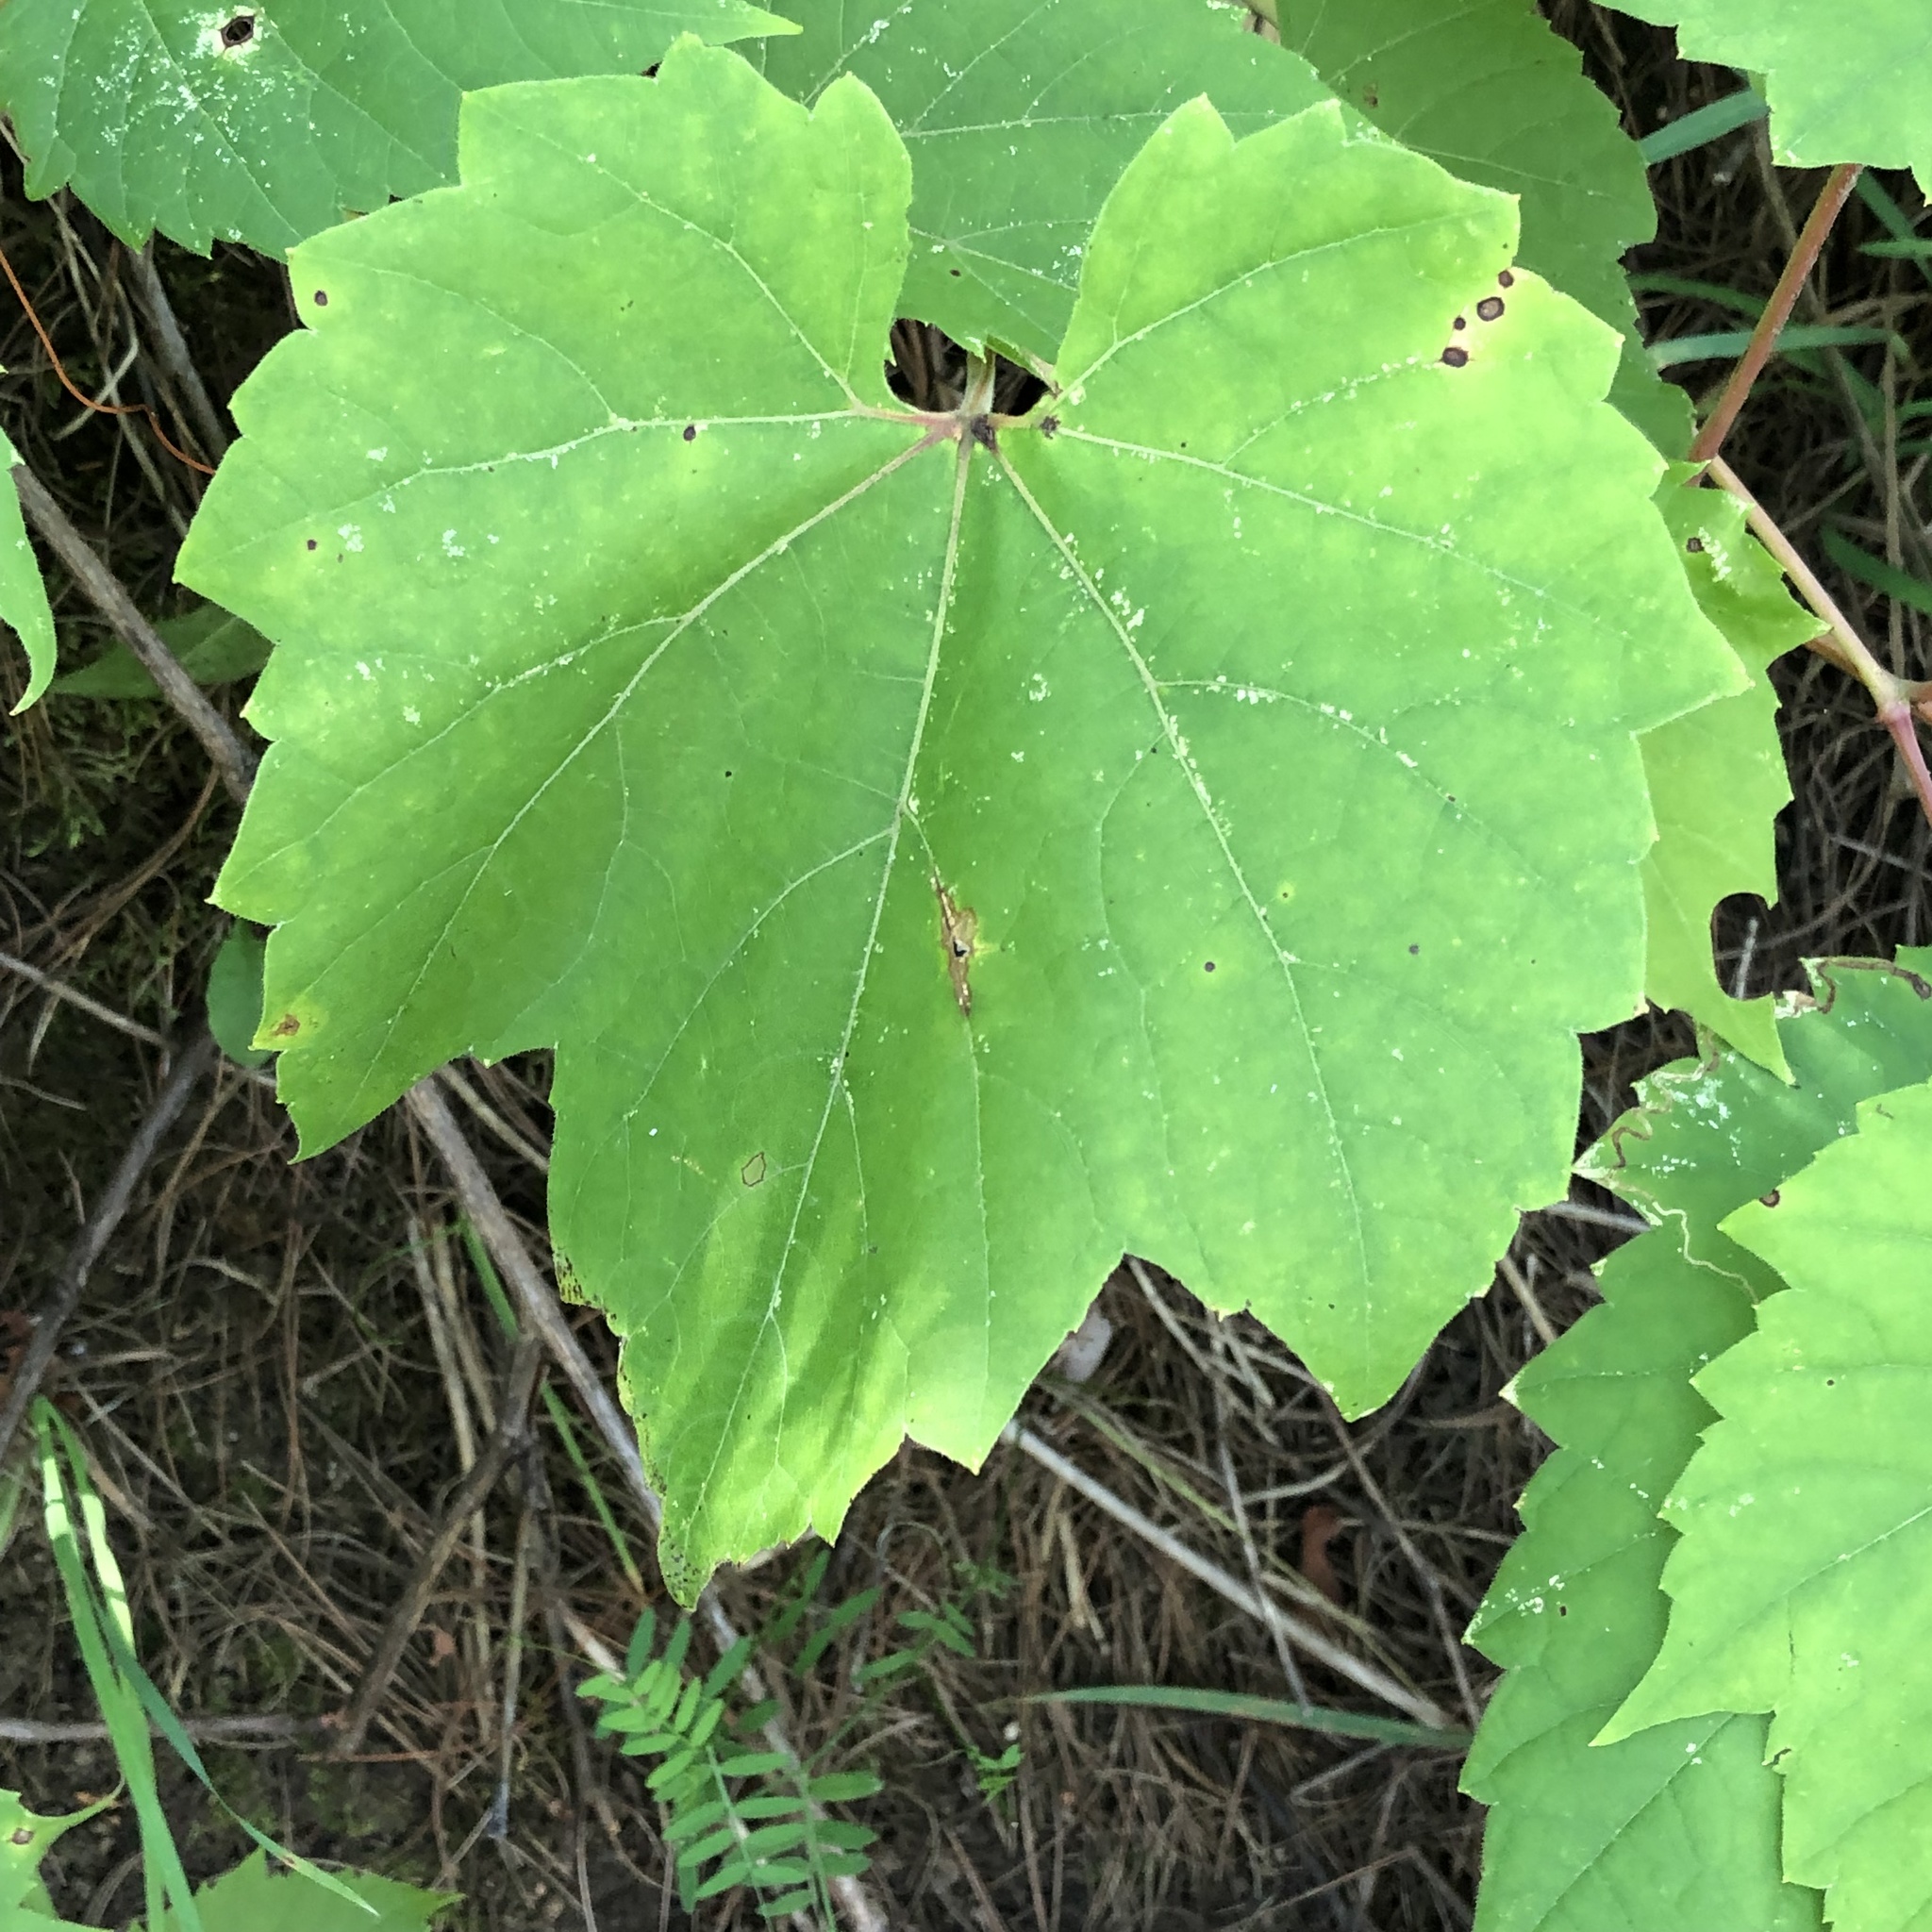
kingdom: Plantae
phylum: Tracheophyta
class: Magnoliopsida
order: Vitales
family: Vitaceae
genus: Vitis
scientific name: Vitis riparia
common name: Frost grape
